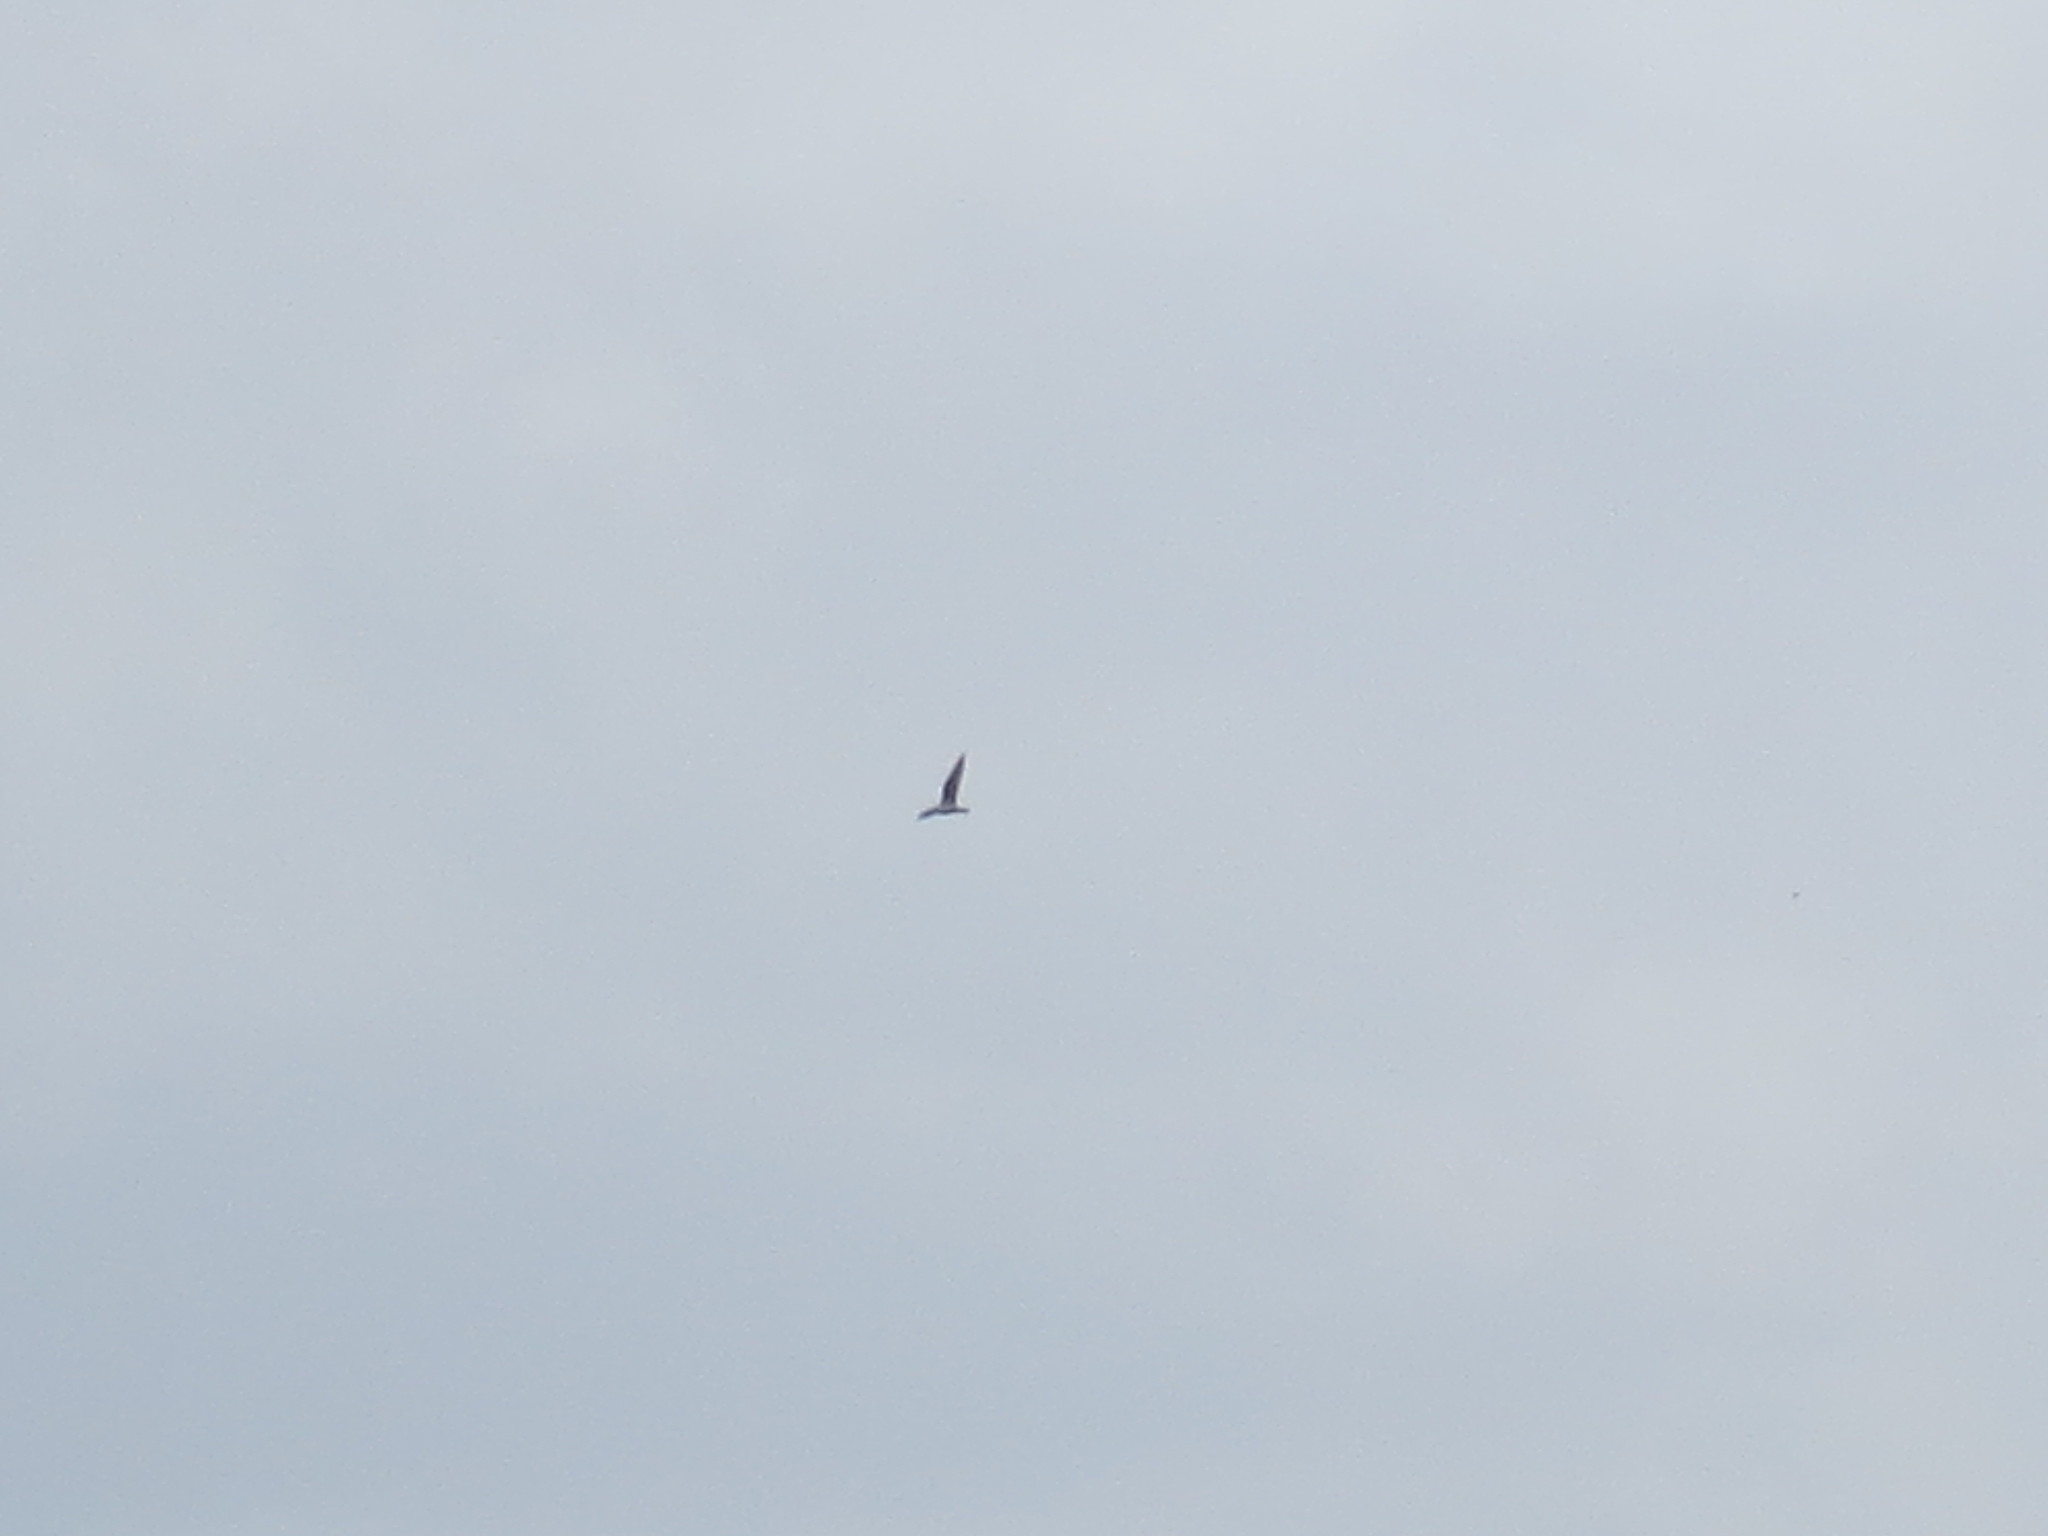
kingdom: Animalia
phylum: Chordata
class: Aves
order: Accipitriformes
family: Pandionidae
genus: Pandion
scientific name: Pandion haliaetus
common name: Osprey
